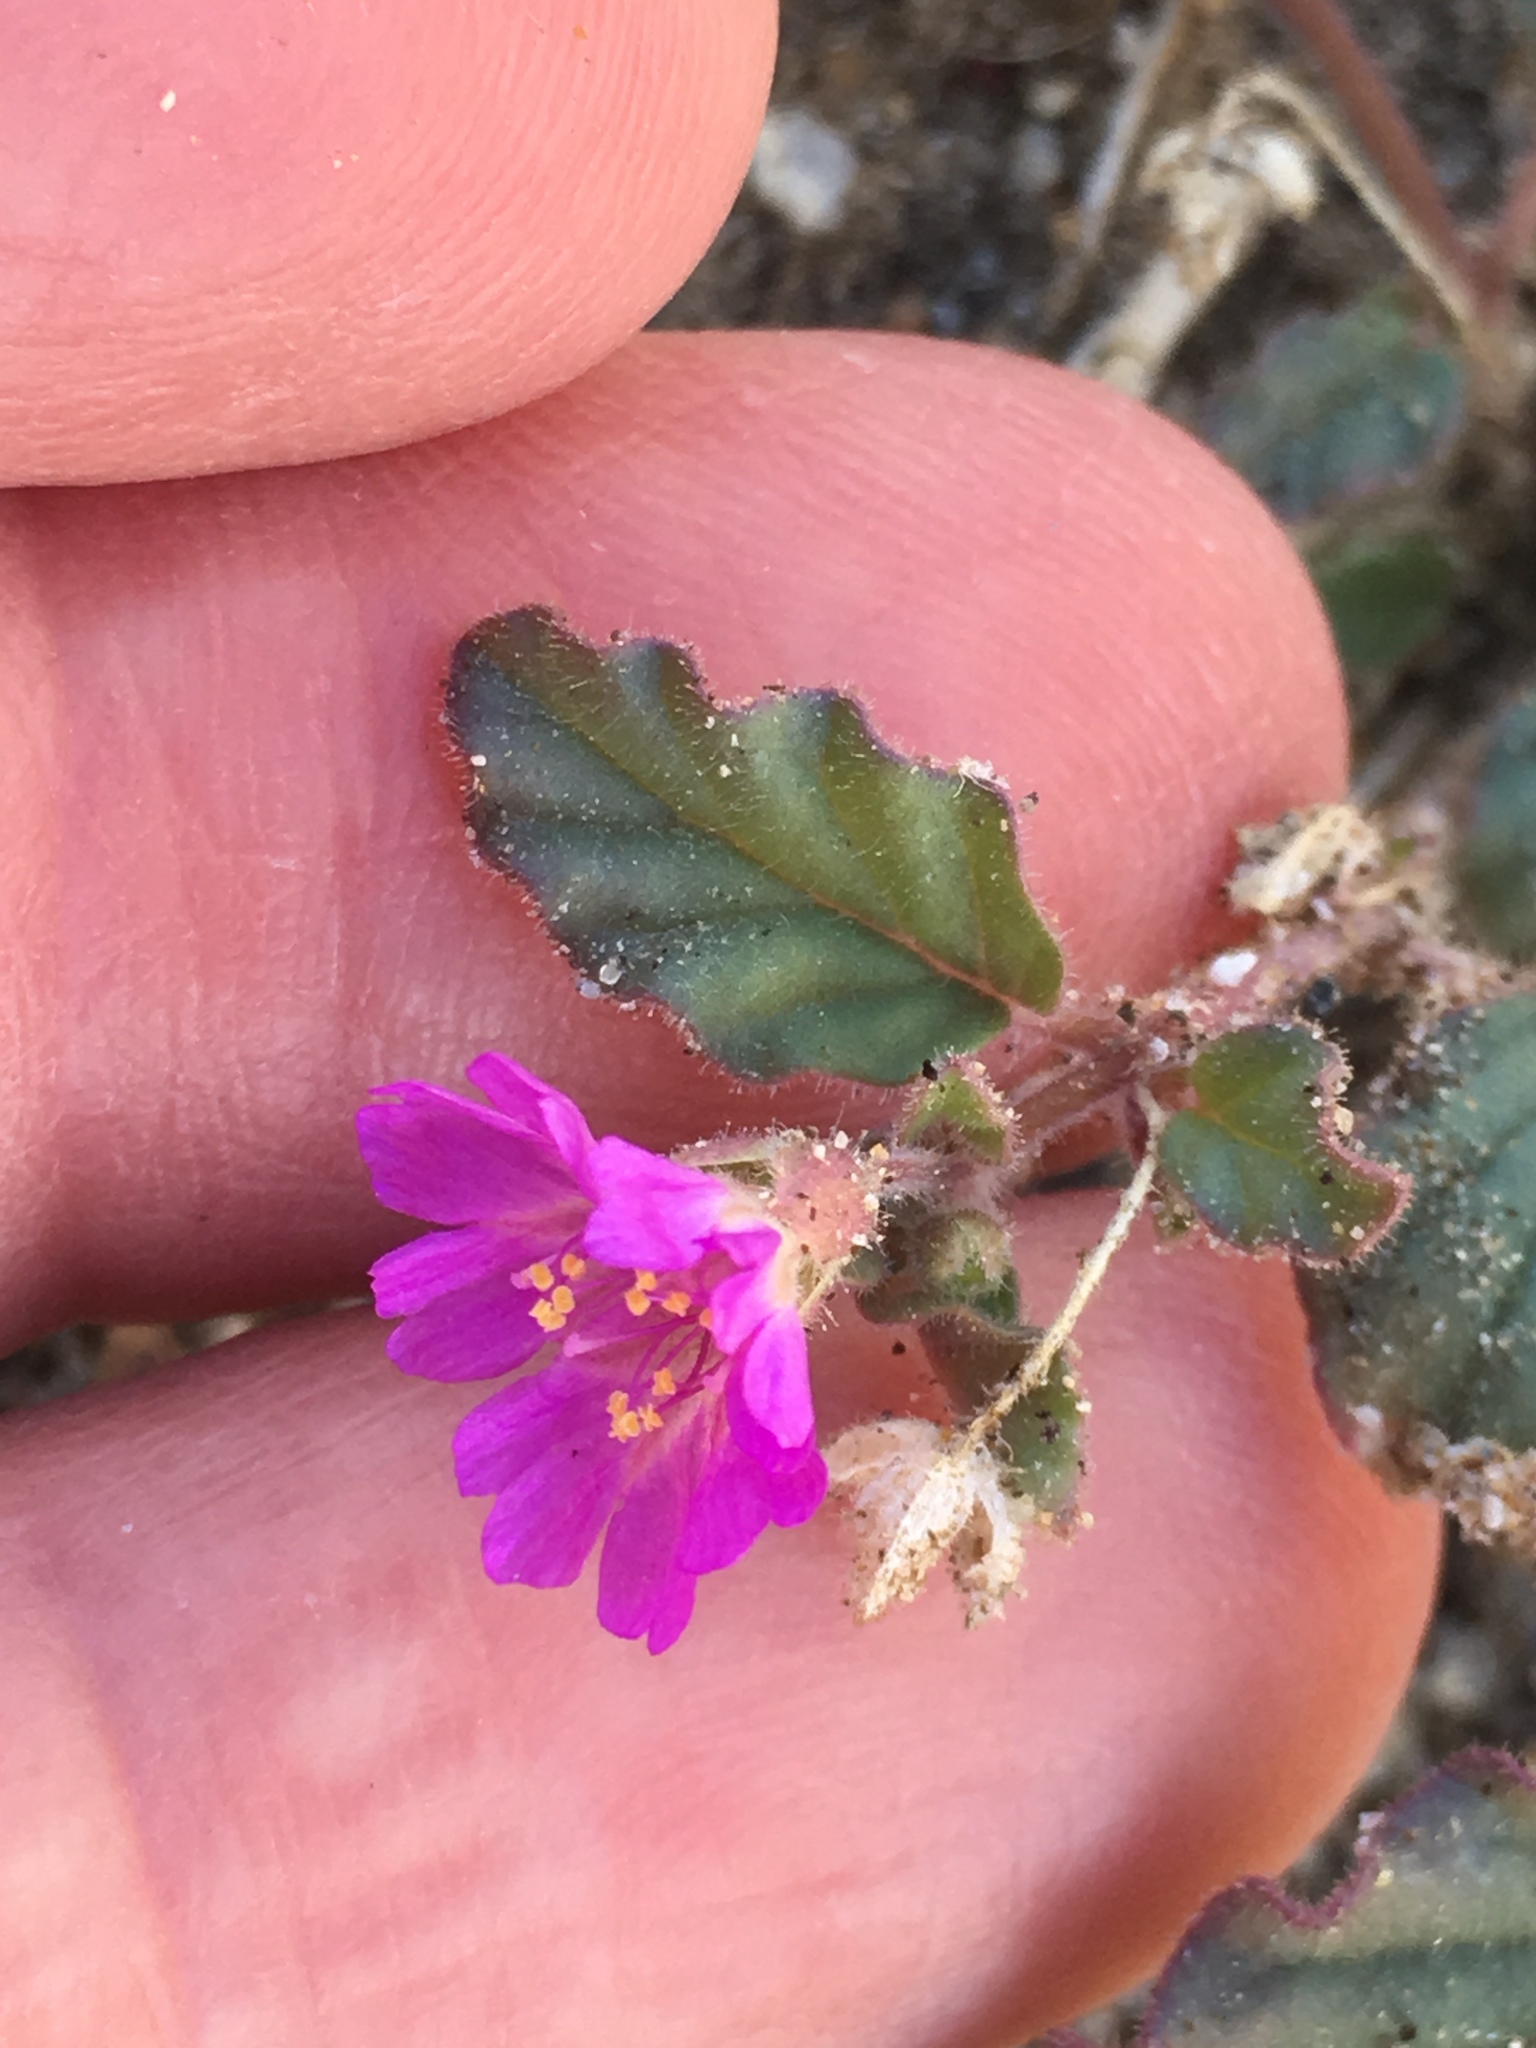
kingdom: Plantae
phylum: Tracheophyta
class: Magnoliopsida
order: Caryophyllales
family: Nyctaginaceae
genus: Allionia
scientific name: Allionia incarnata
